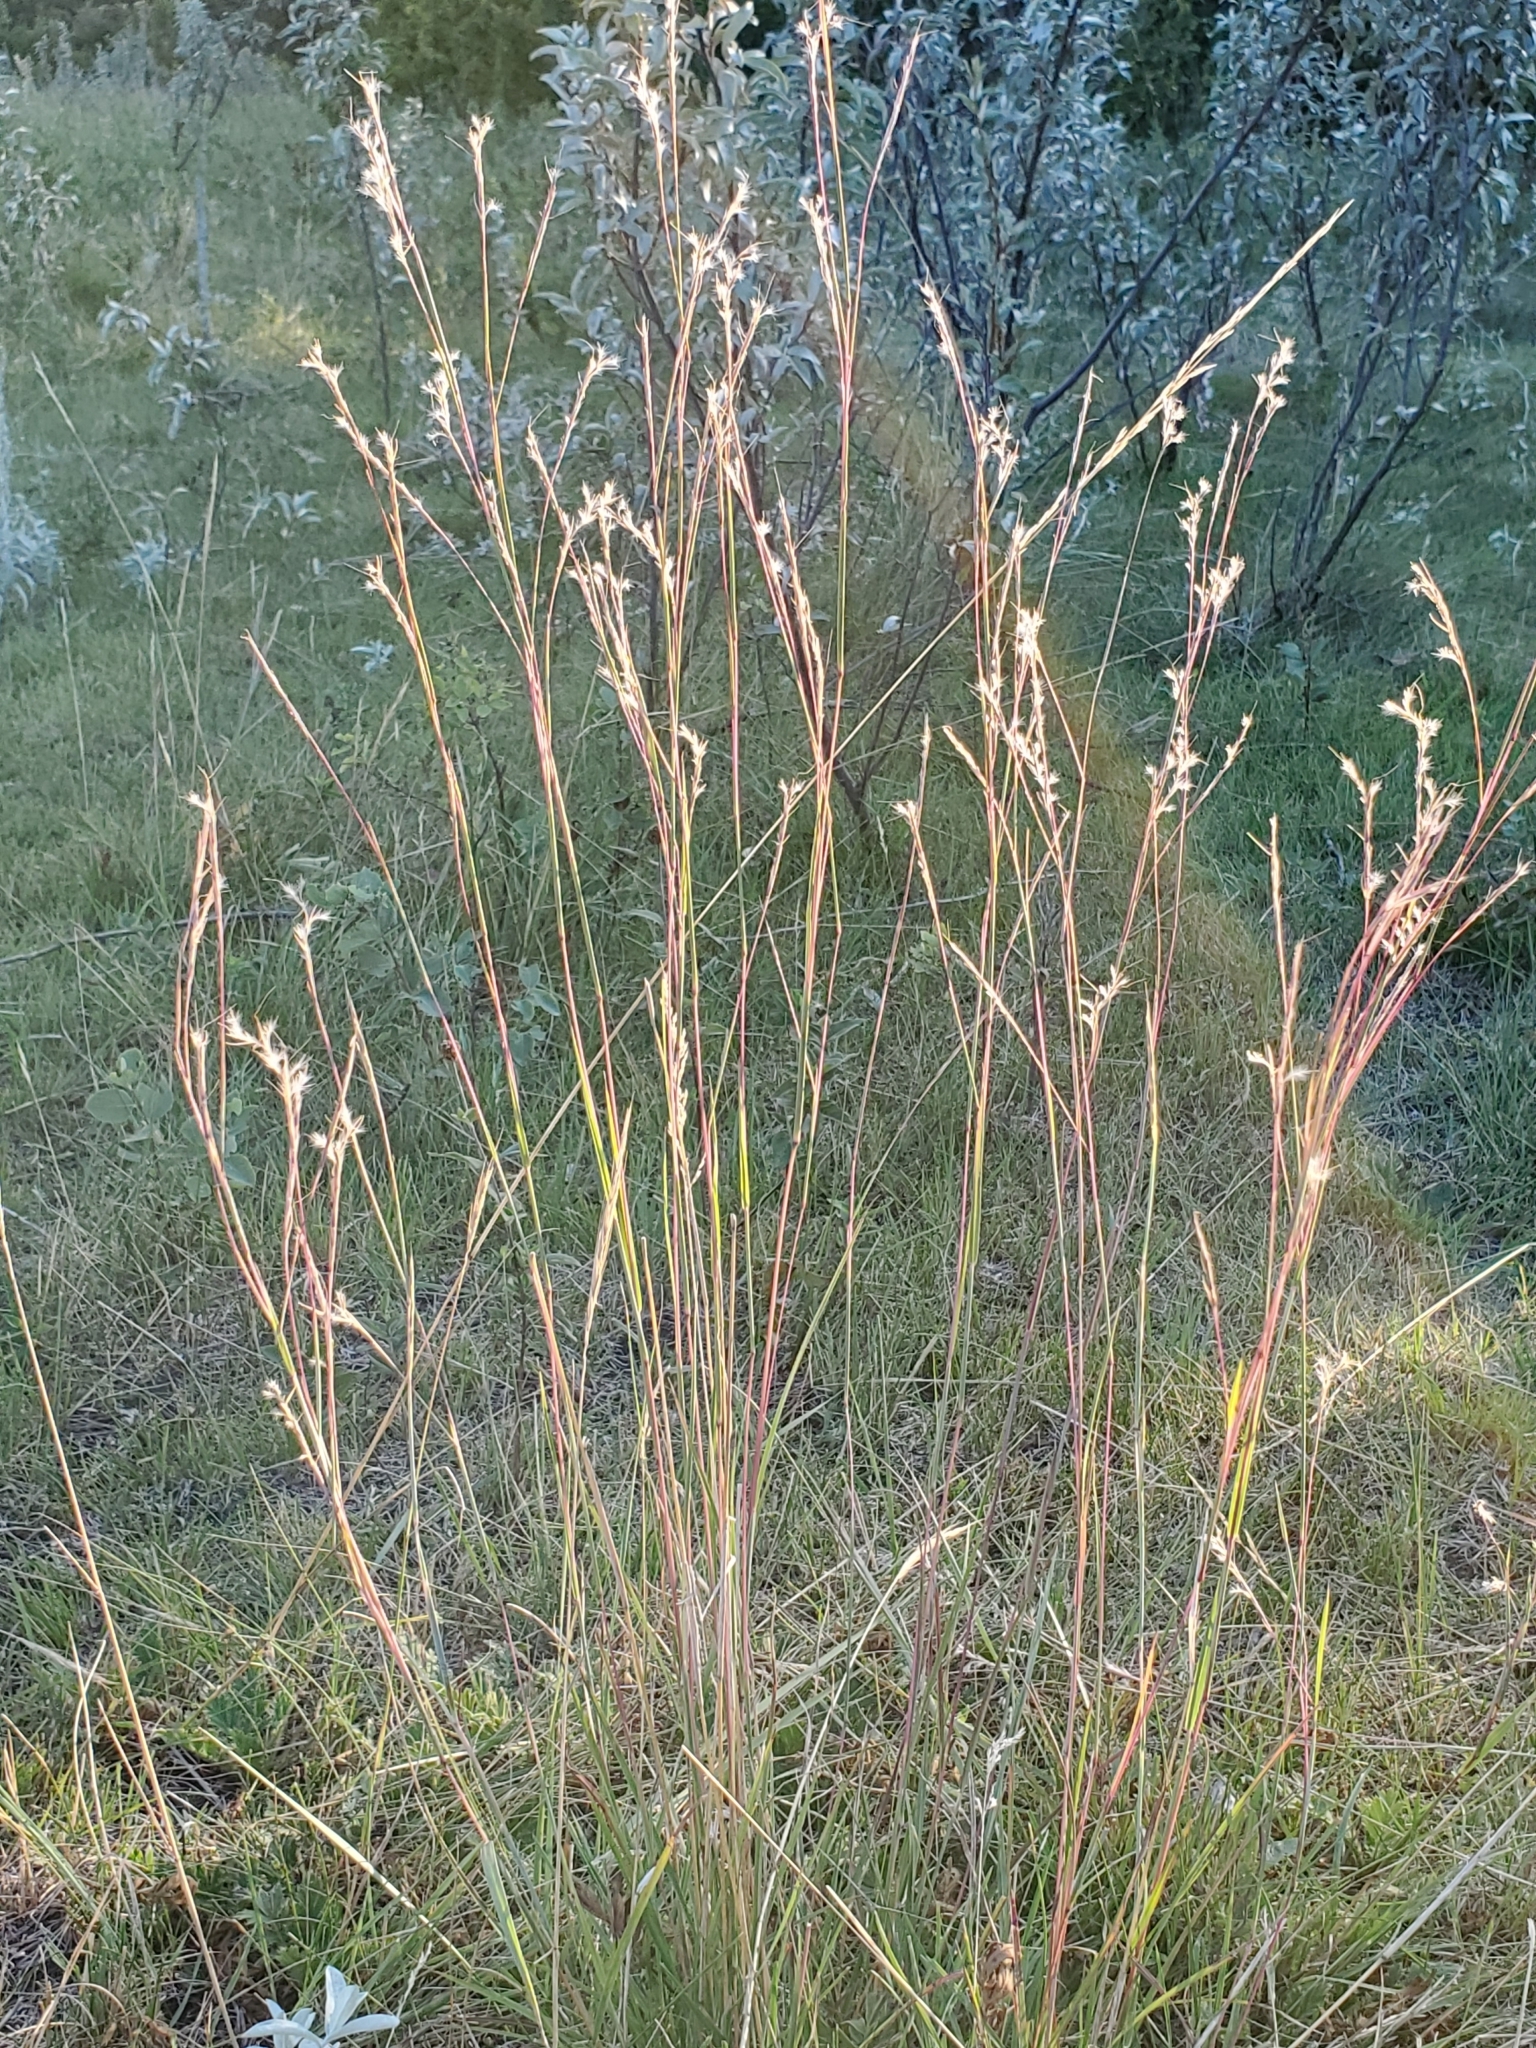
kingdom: Plantae
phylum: Tracheophyta
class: Liliopsida
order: Poales
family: Poaceae
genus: Schizachyrium
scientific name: Schizachyrium scoparium
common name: Little bluestem
